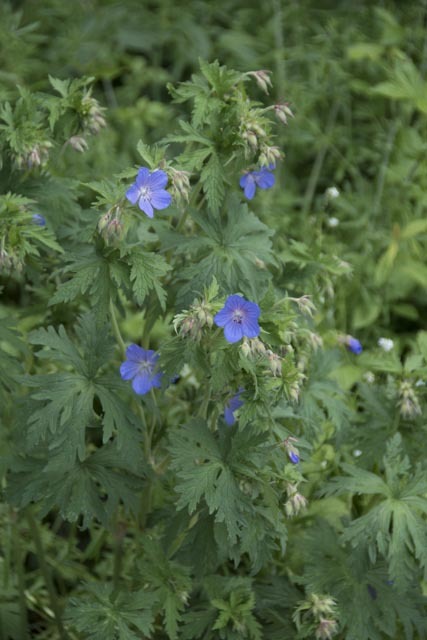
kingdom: Plantae
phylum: Tracheophyta
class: Magnoliopsida
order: Geraniales
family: Geraniaceae
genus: Geranium
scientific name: Geranium pratense
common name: Meadow crane's-bill
